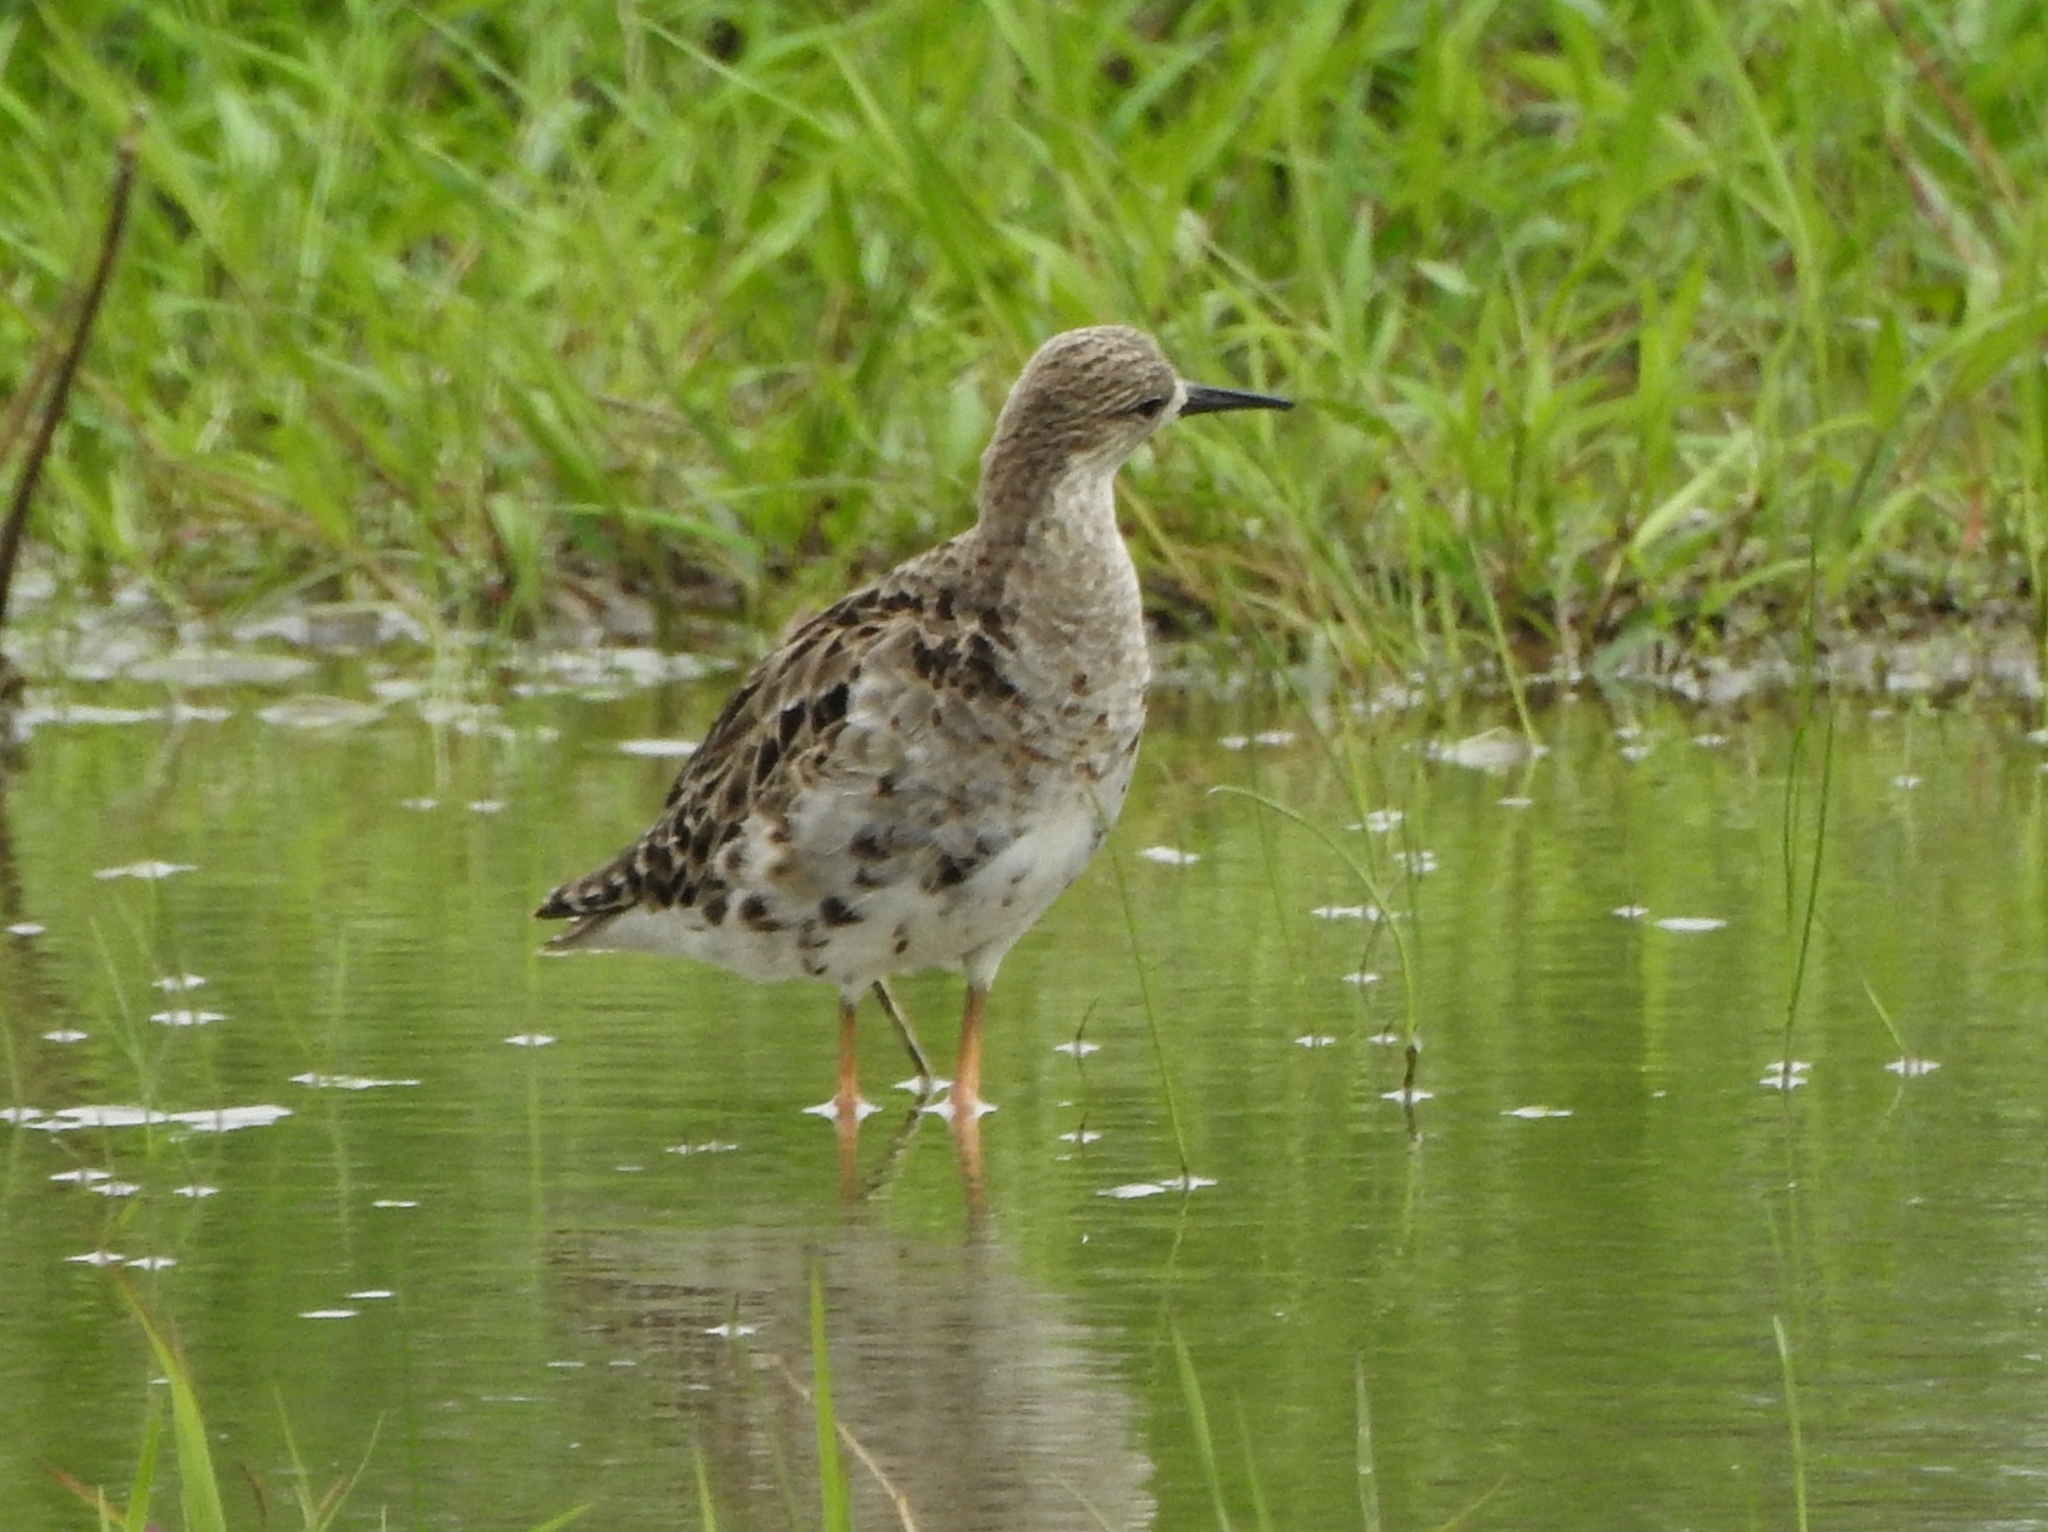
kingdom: Animalia
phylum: Chordata
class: Aves
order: Charadriiformes
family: Scolopacidae
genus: Calidris
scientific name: Calidris pugnax
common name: Ruff
